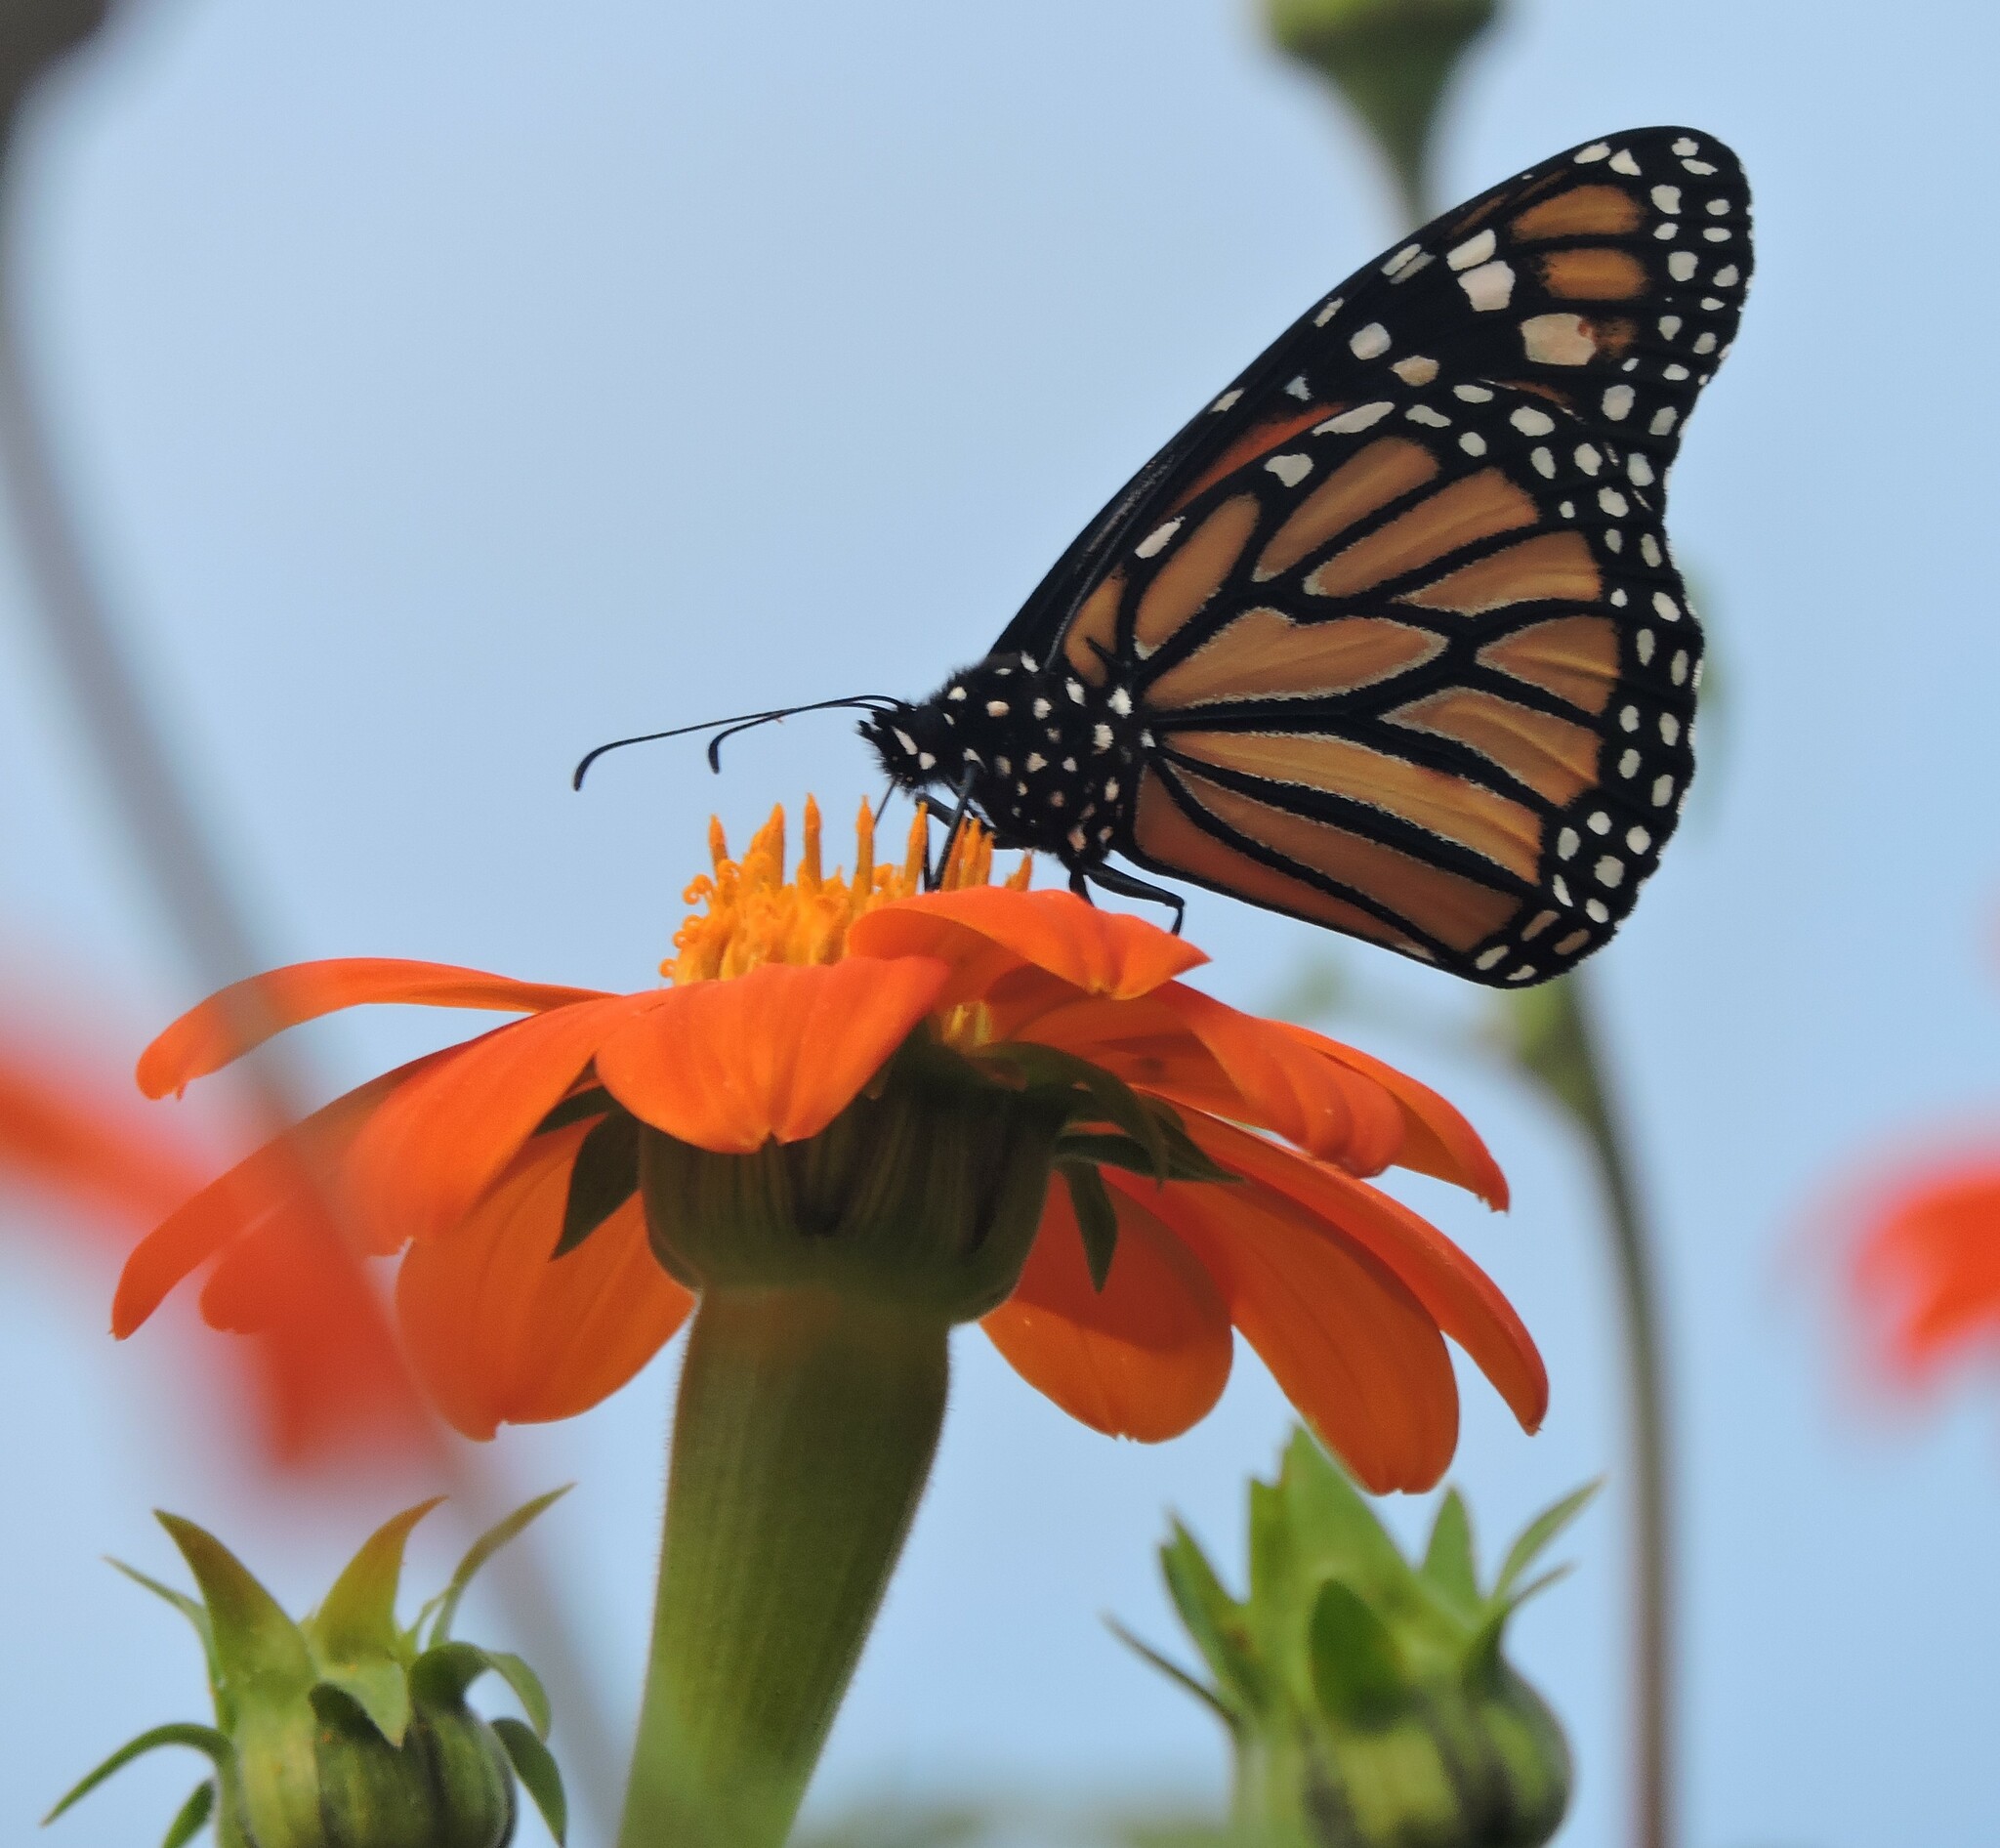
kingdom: Animalia
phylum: Arthropoda
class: Insecta
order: Lepidoptera
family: Nymphalidae
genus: Danaus
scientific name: Danaus plexippus
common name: Monarch
